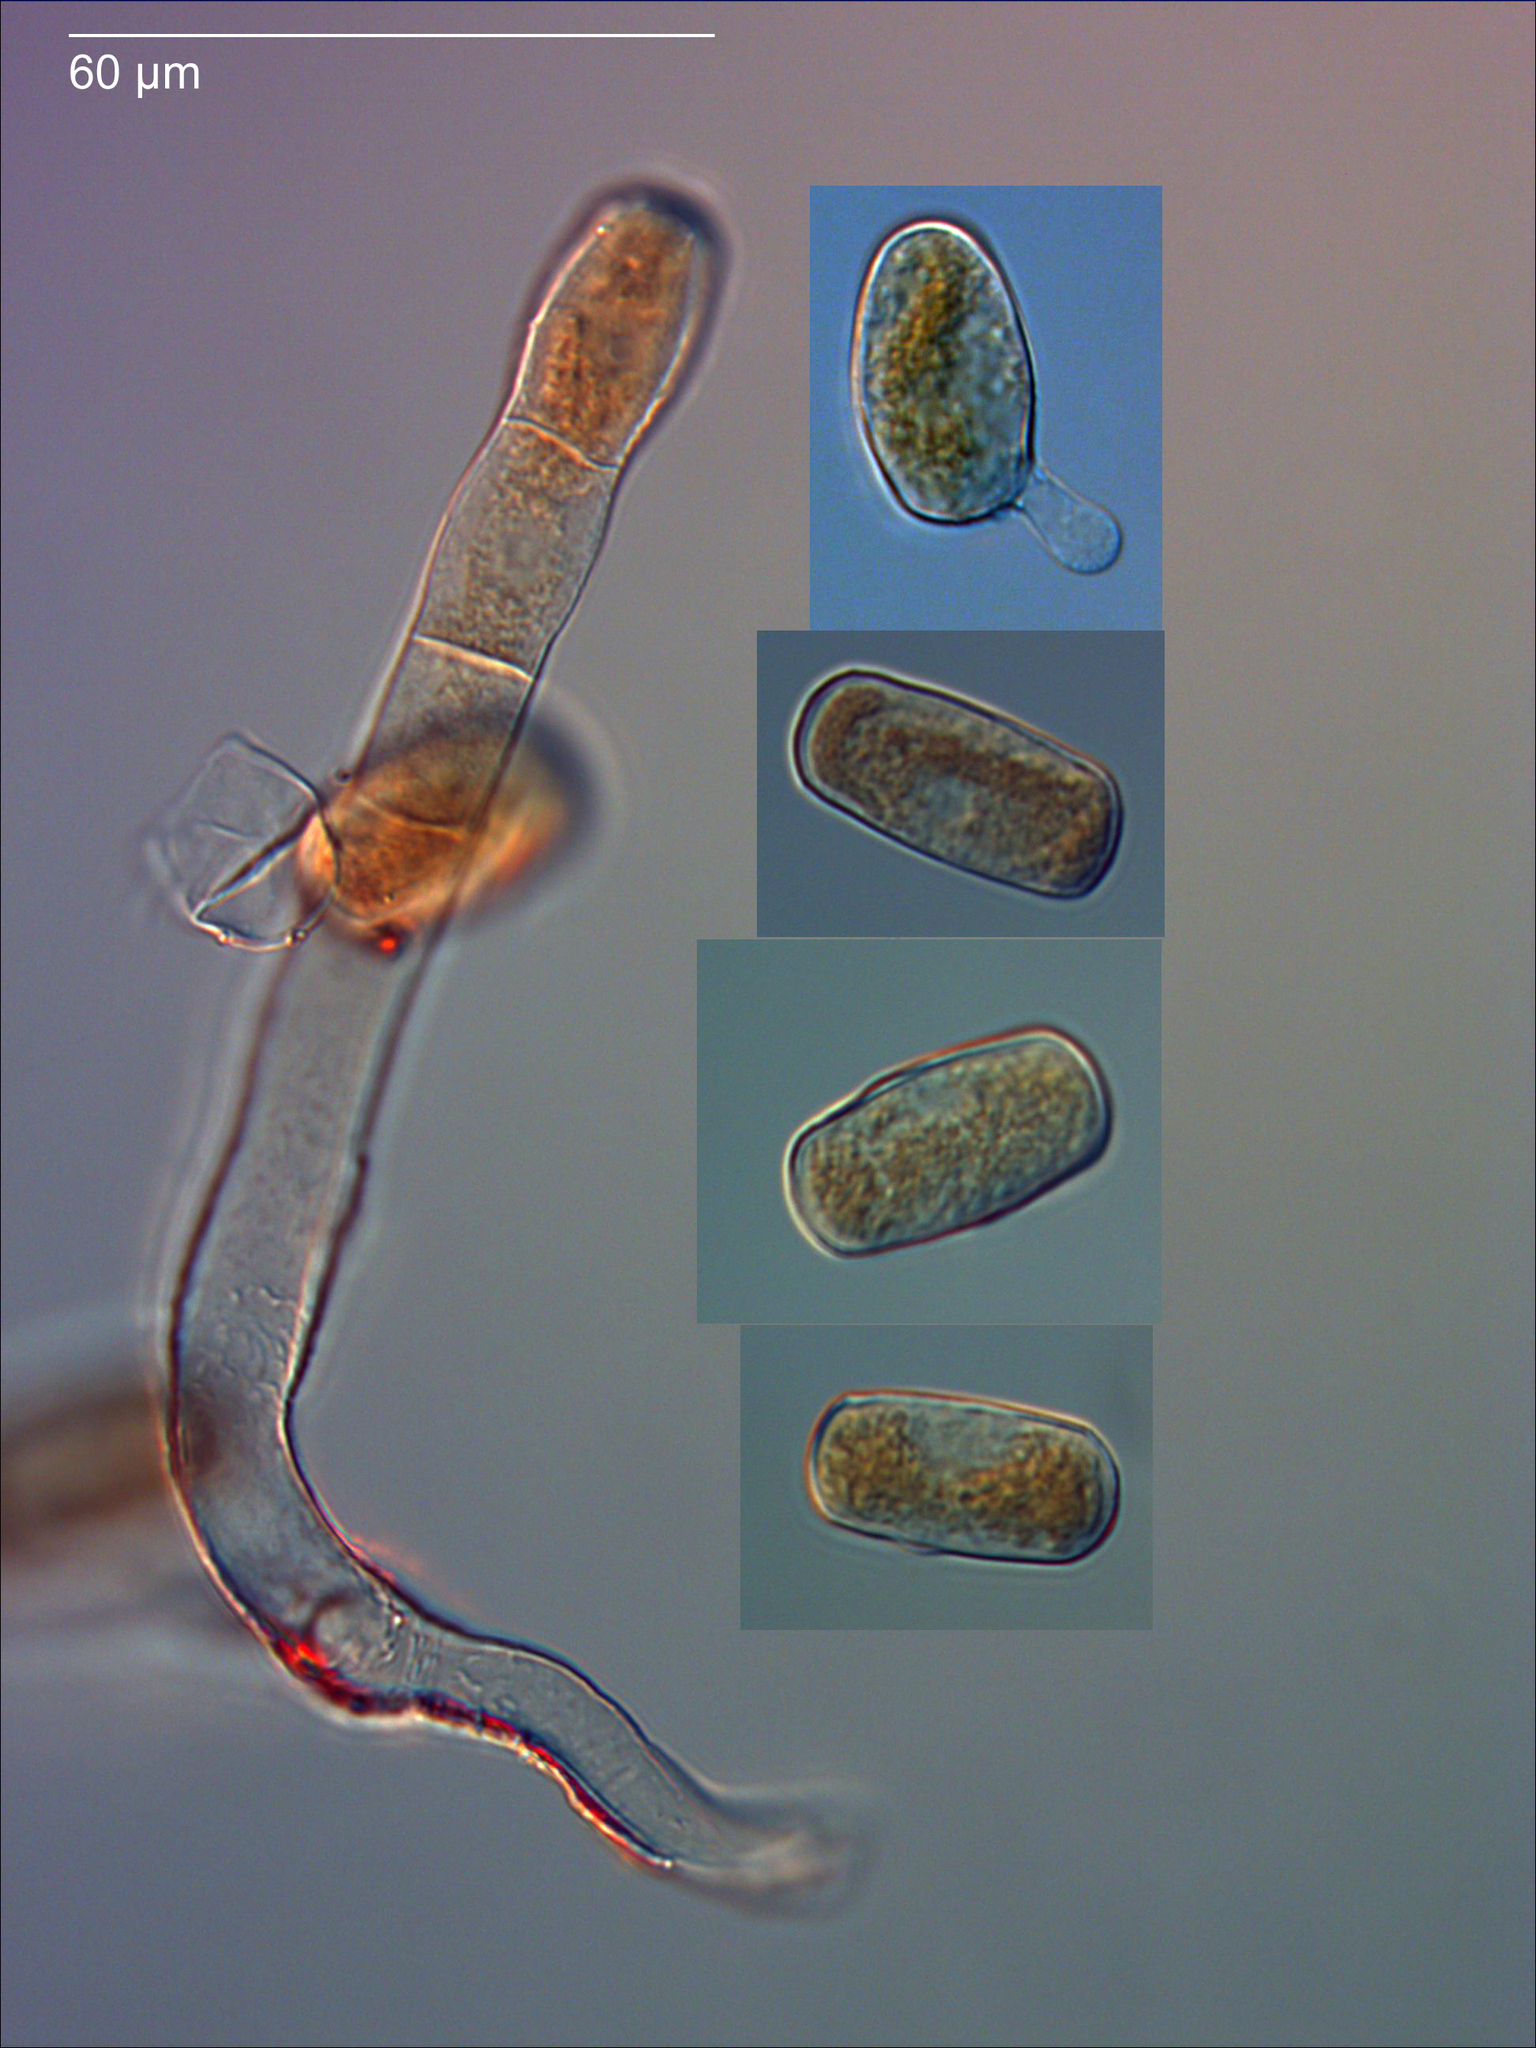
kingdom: Fungi
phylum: Ascomycota
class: Leotiomycetes
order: Helotiales
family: Erysiphaceae
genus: Golovinomyces
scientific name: Golovinomyces sordidus
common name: Plantain mildew
